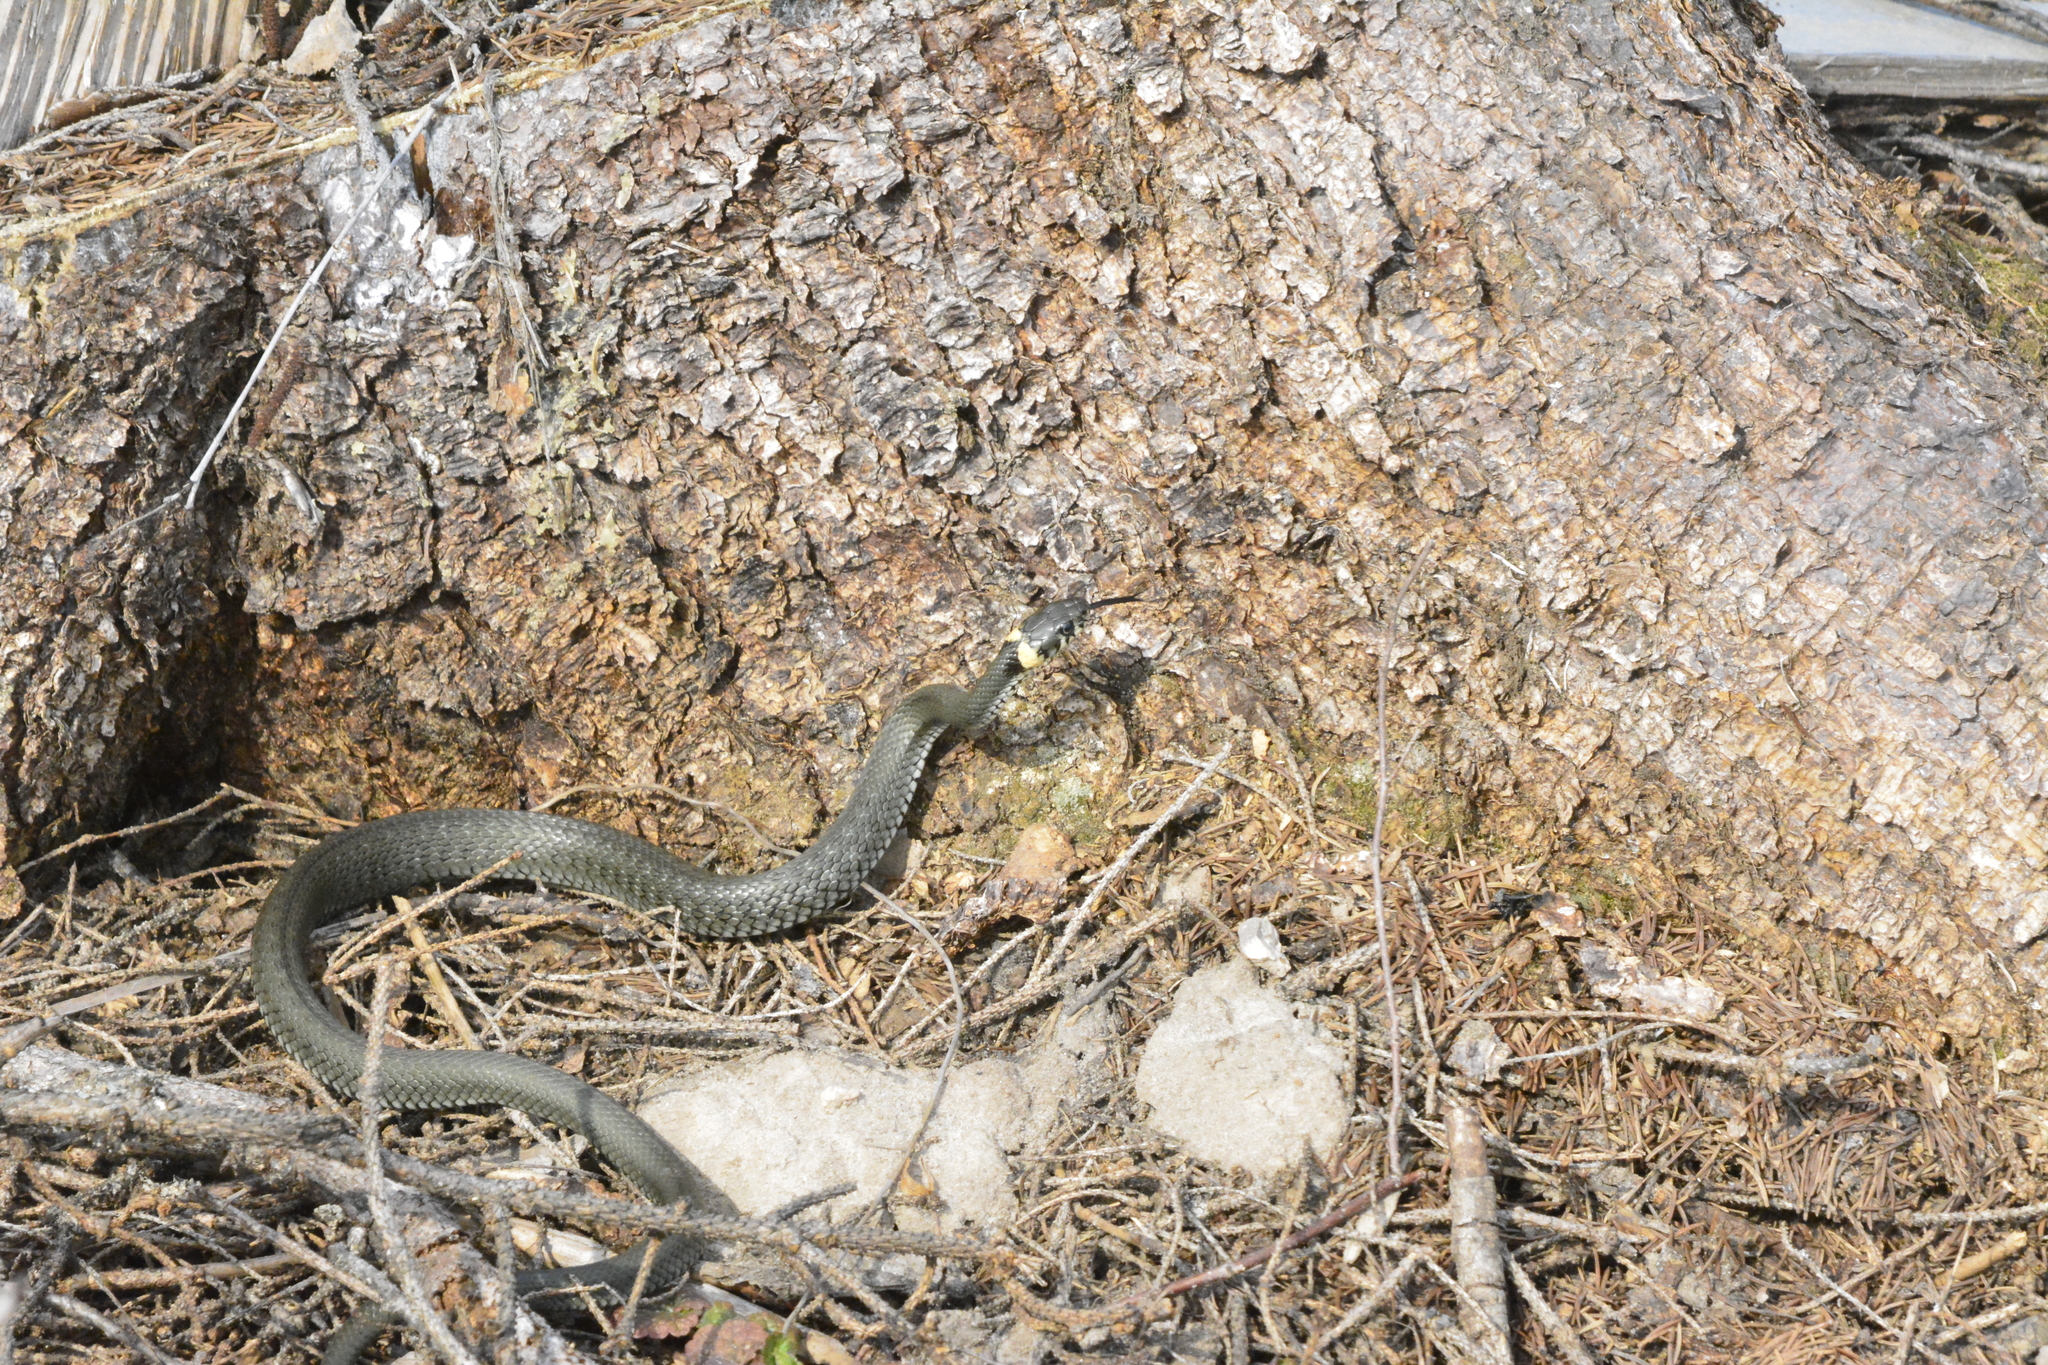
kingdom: Animalia
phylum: Chordata
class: Squamata
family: Colubridae
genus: Natrix
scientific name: Natrix natrix
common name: Grass snake
